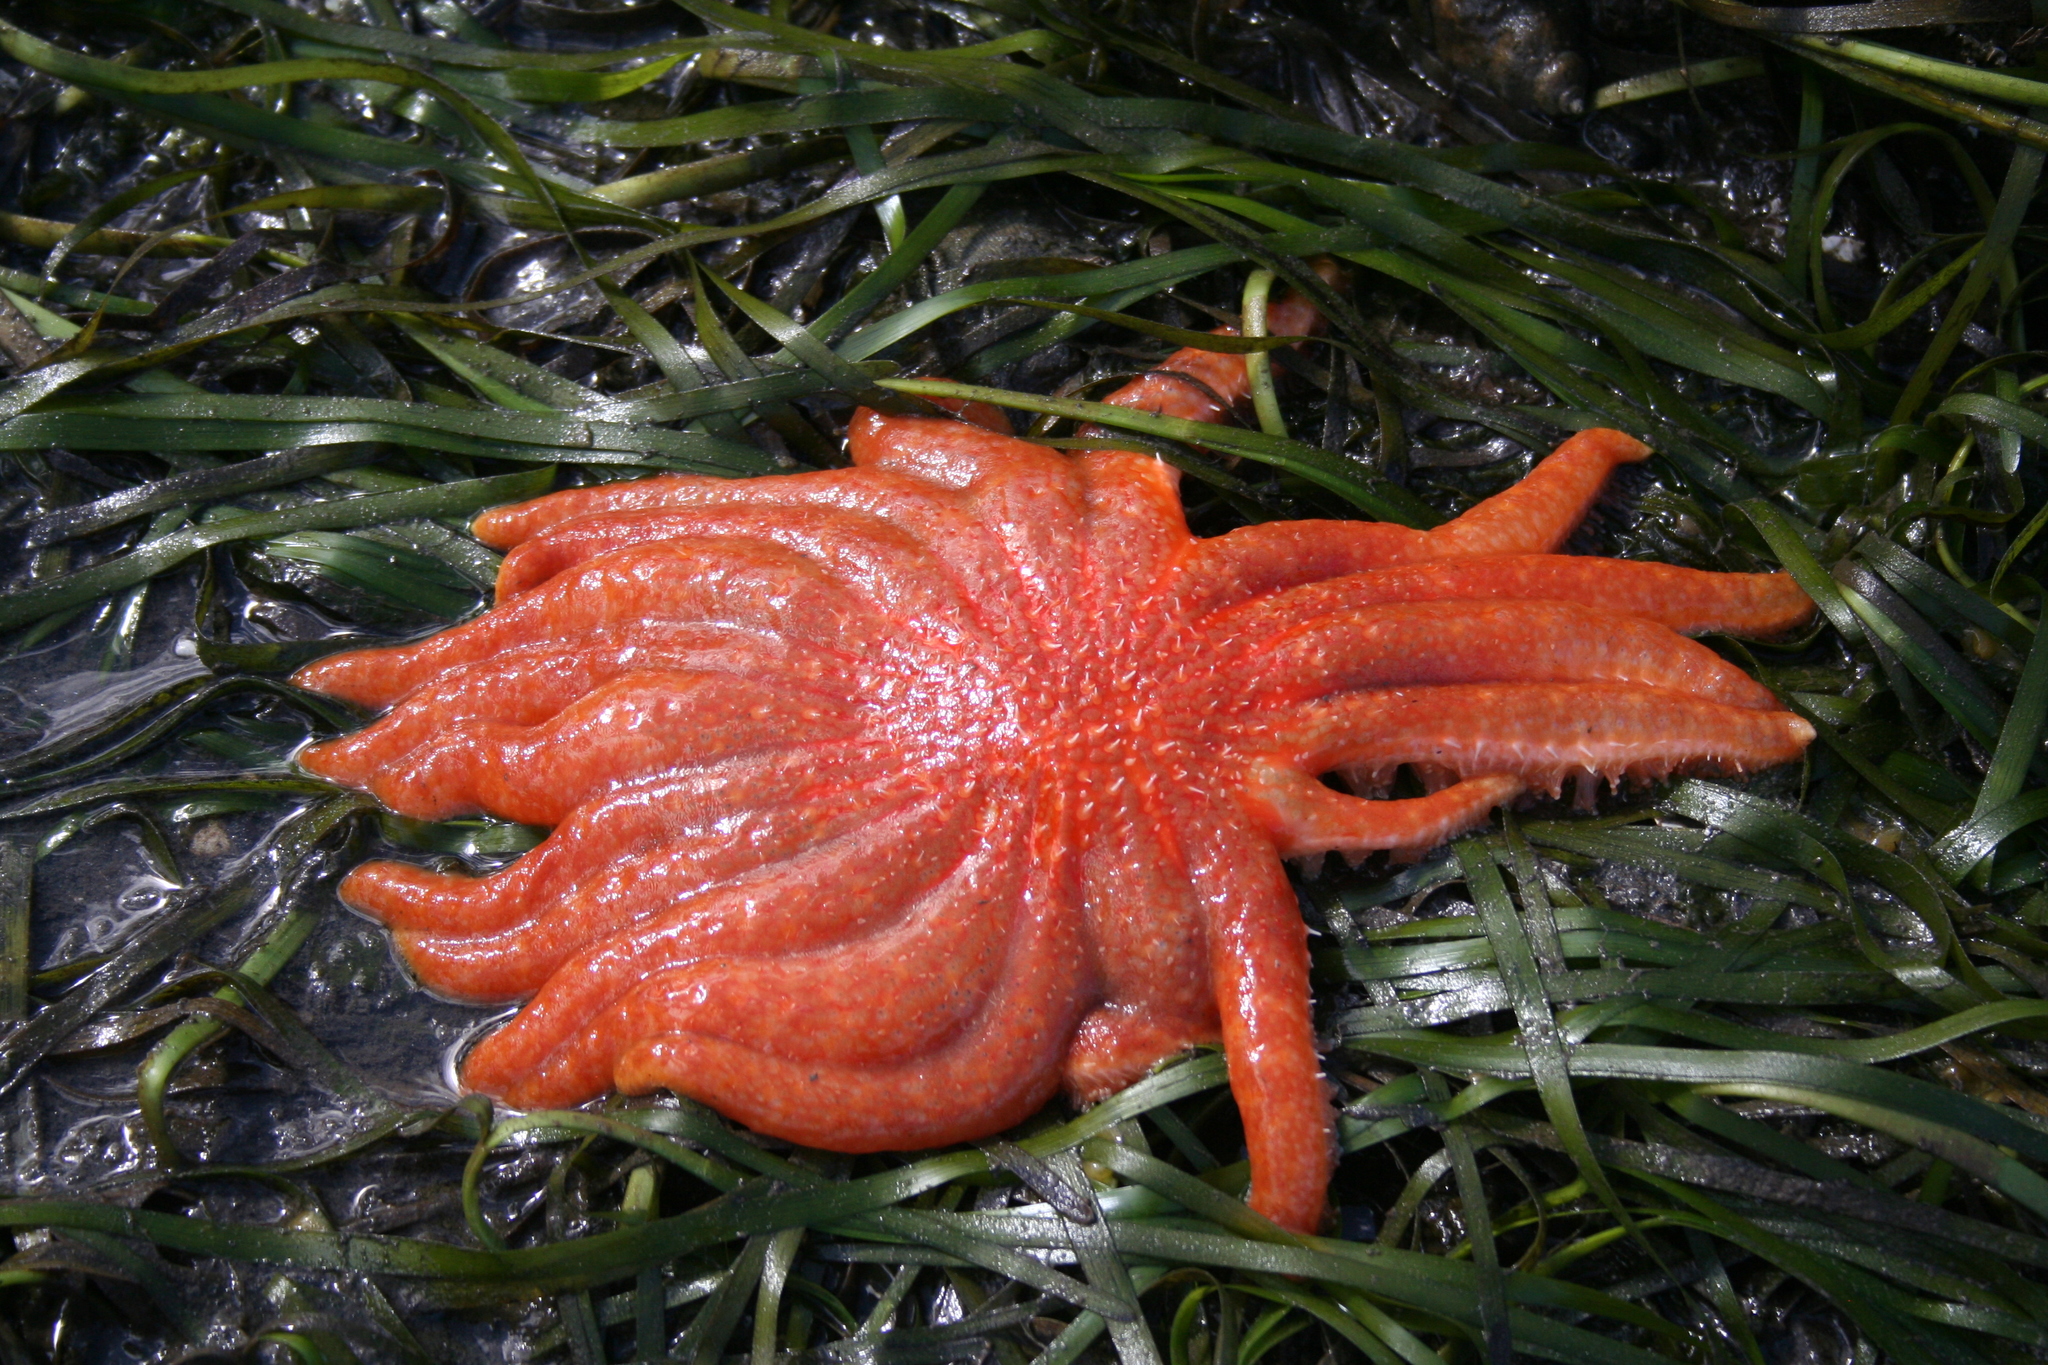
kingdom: Animalia
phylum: Echinodermata
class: Asteroidea
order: Forcipulatida
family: Asteriidae
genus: Pycnopodia
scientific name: Pycnopodia helianthoides
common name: Rag mop
